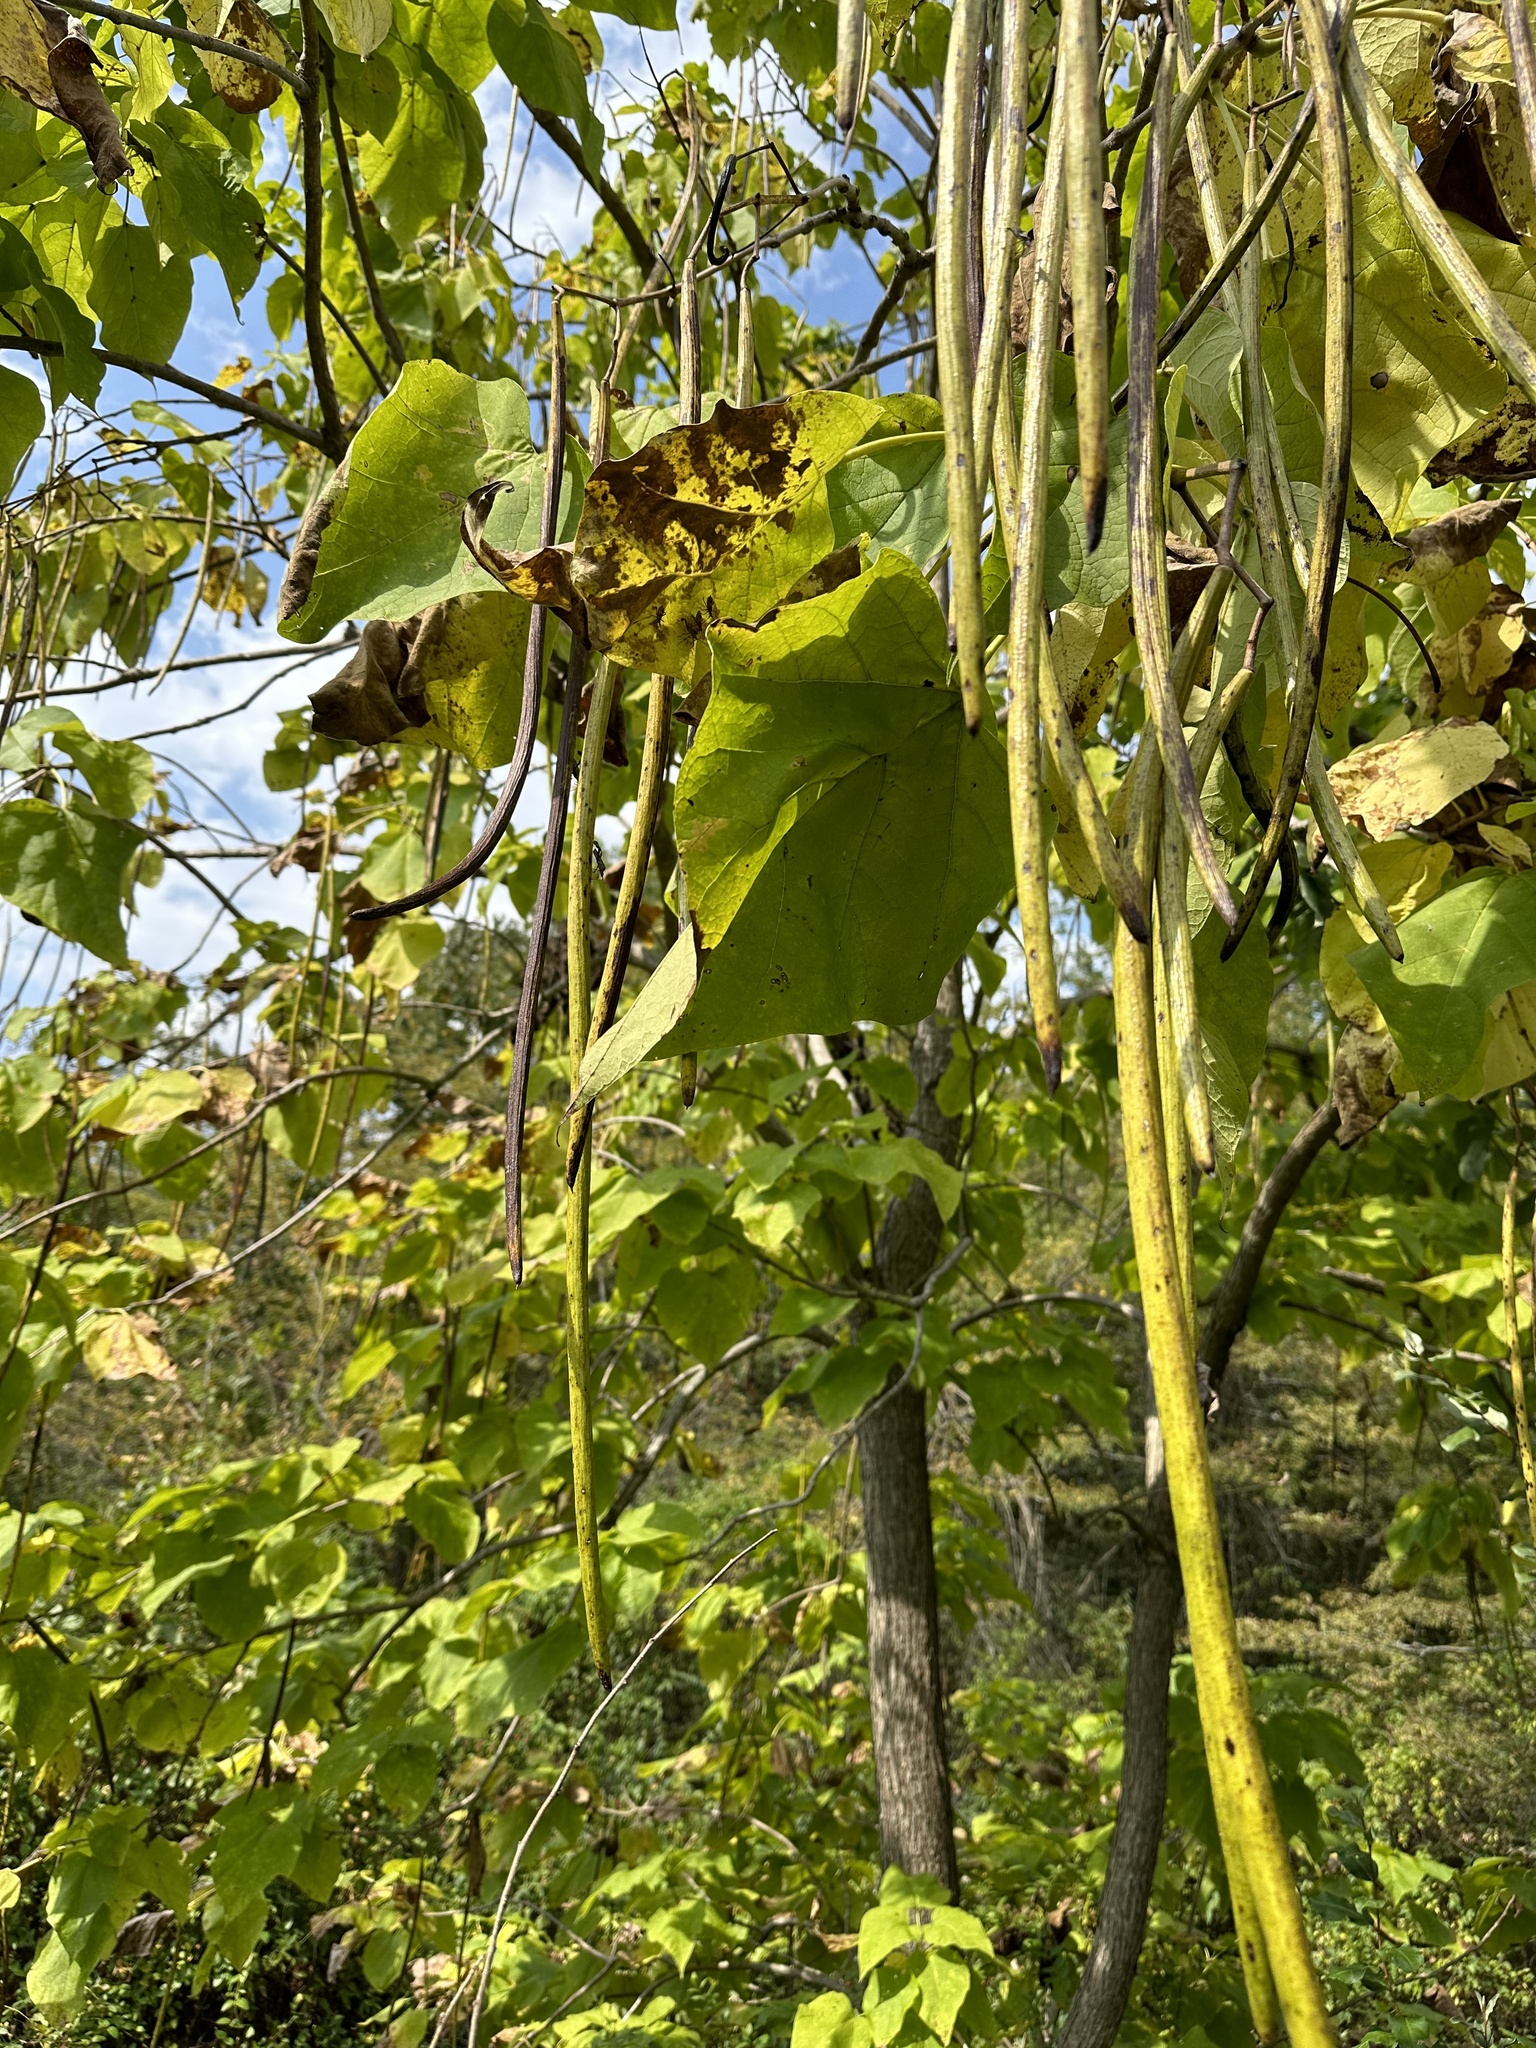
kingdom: Plantae
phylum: Tracheophyta
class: Magnoliopsida
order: Lamiales
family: Bignoniaceae
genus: Catalpa
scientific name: Catalpa speciosa
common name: Northern catalpa
